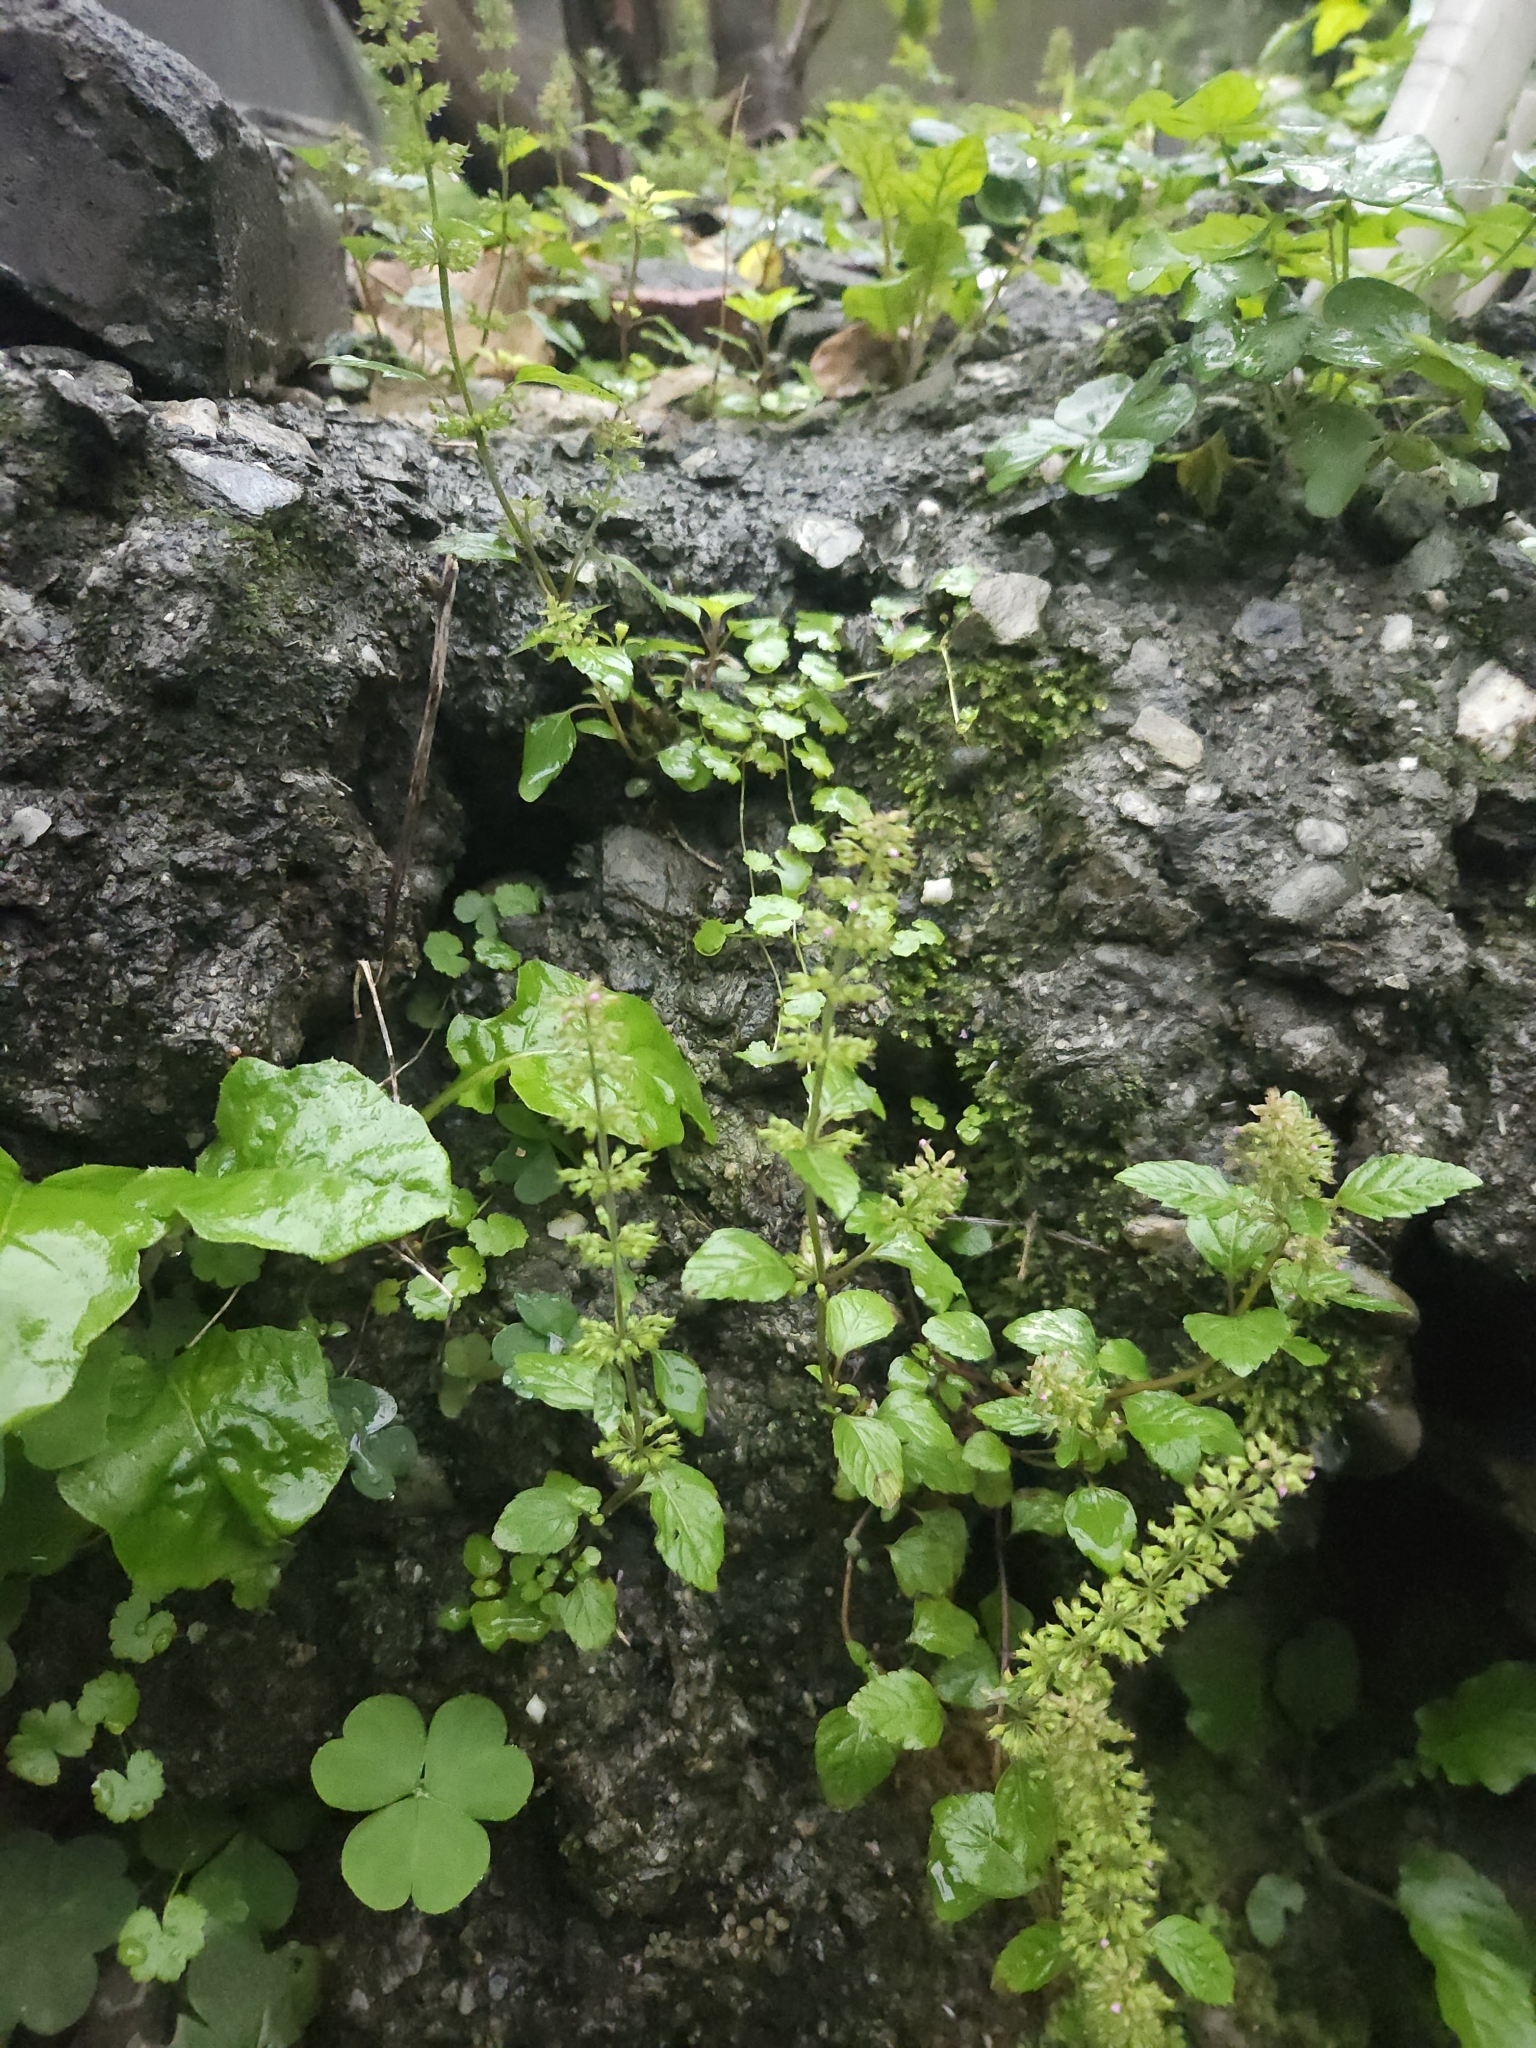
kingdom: Plantae
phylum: Tracheophyta
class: Magnoliopsida
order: Lamiales
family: Lamiaceae
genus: Clinopodium
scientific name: Clinopodium gracile
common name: Slender wild basil
